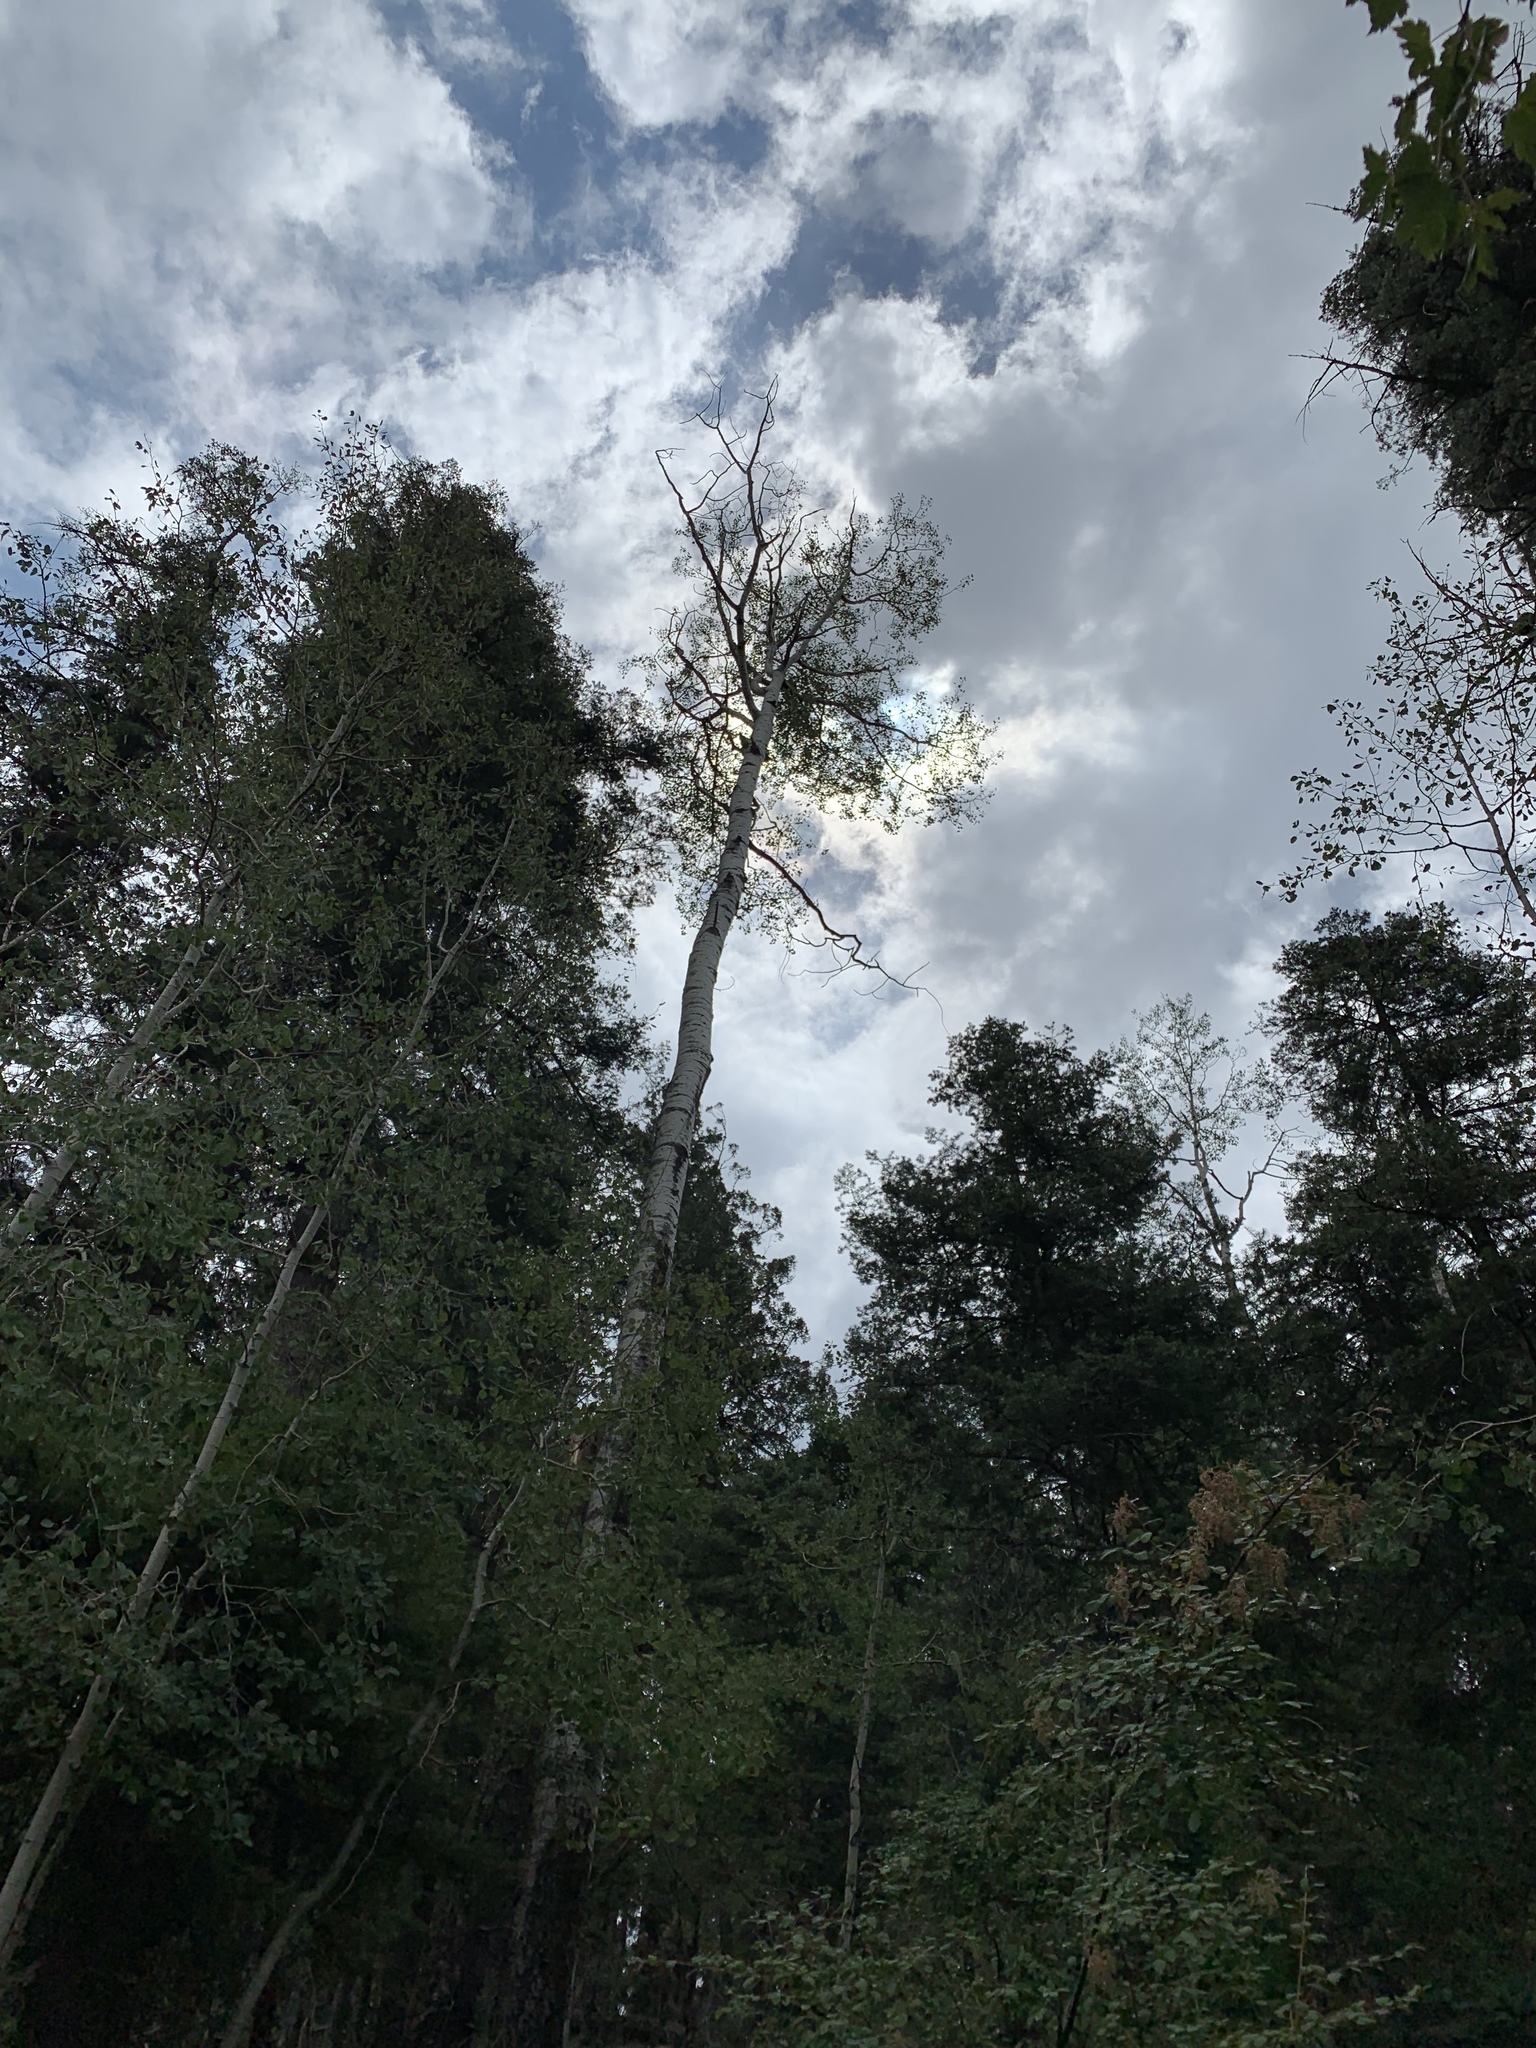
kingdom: Plantae
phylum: Tracheophyta
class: Magnoliopsida
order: Malpighiales
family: Salicaceae
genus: Populus
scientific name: Populus tremuloides
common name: Quaking aspen
